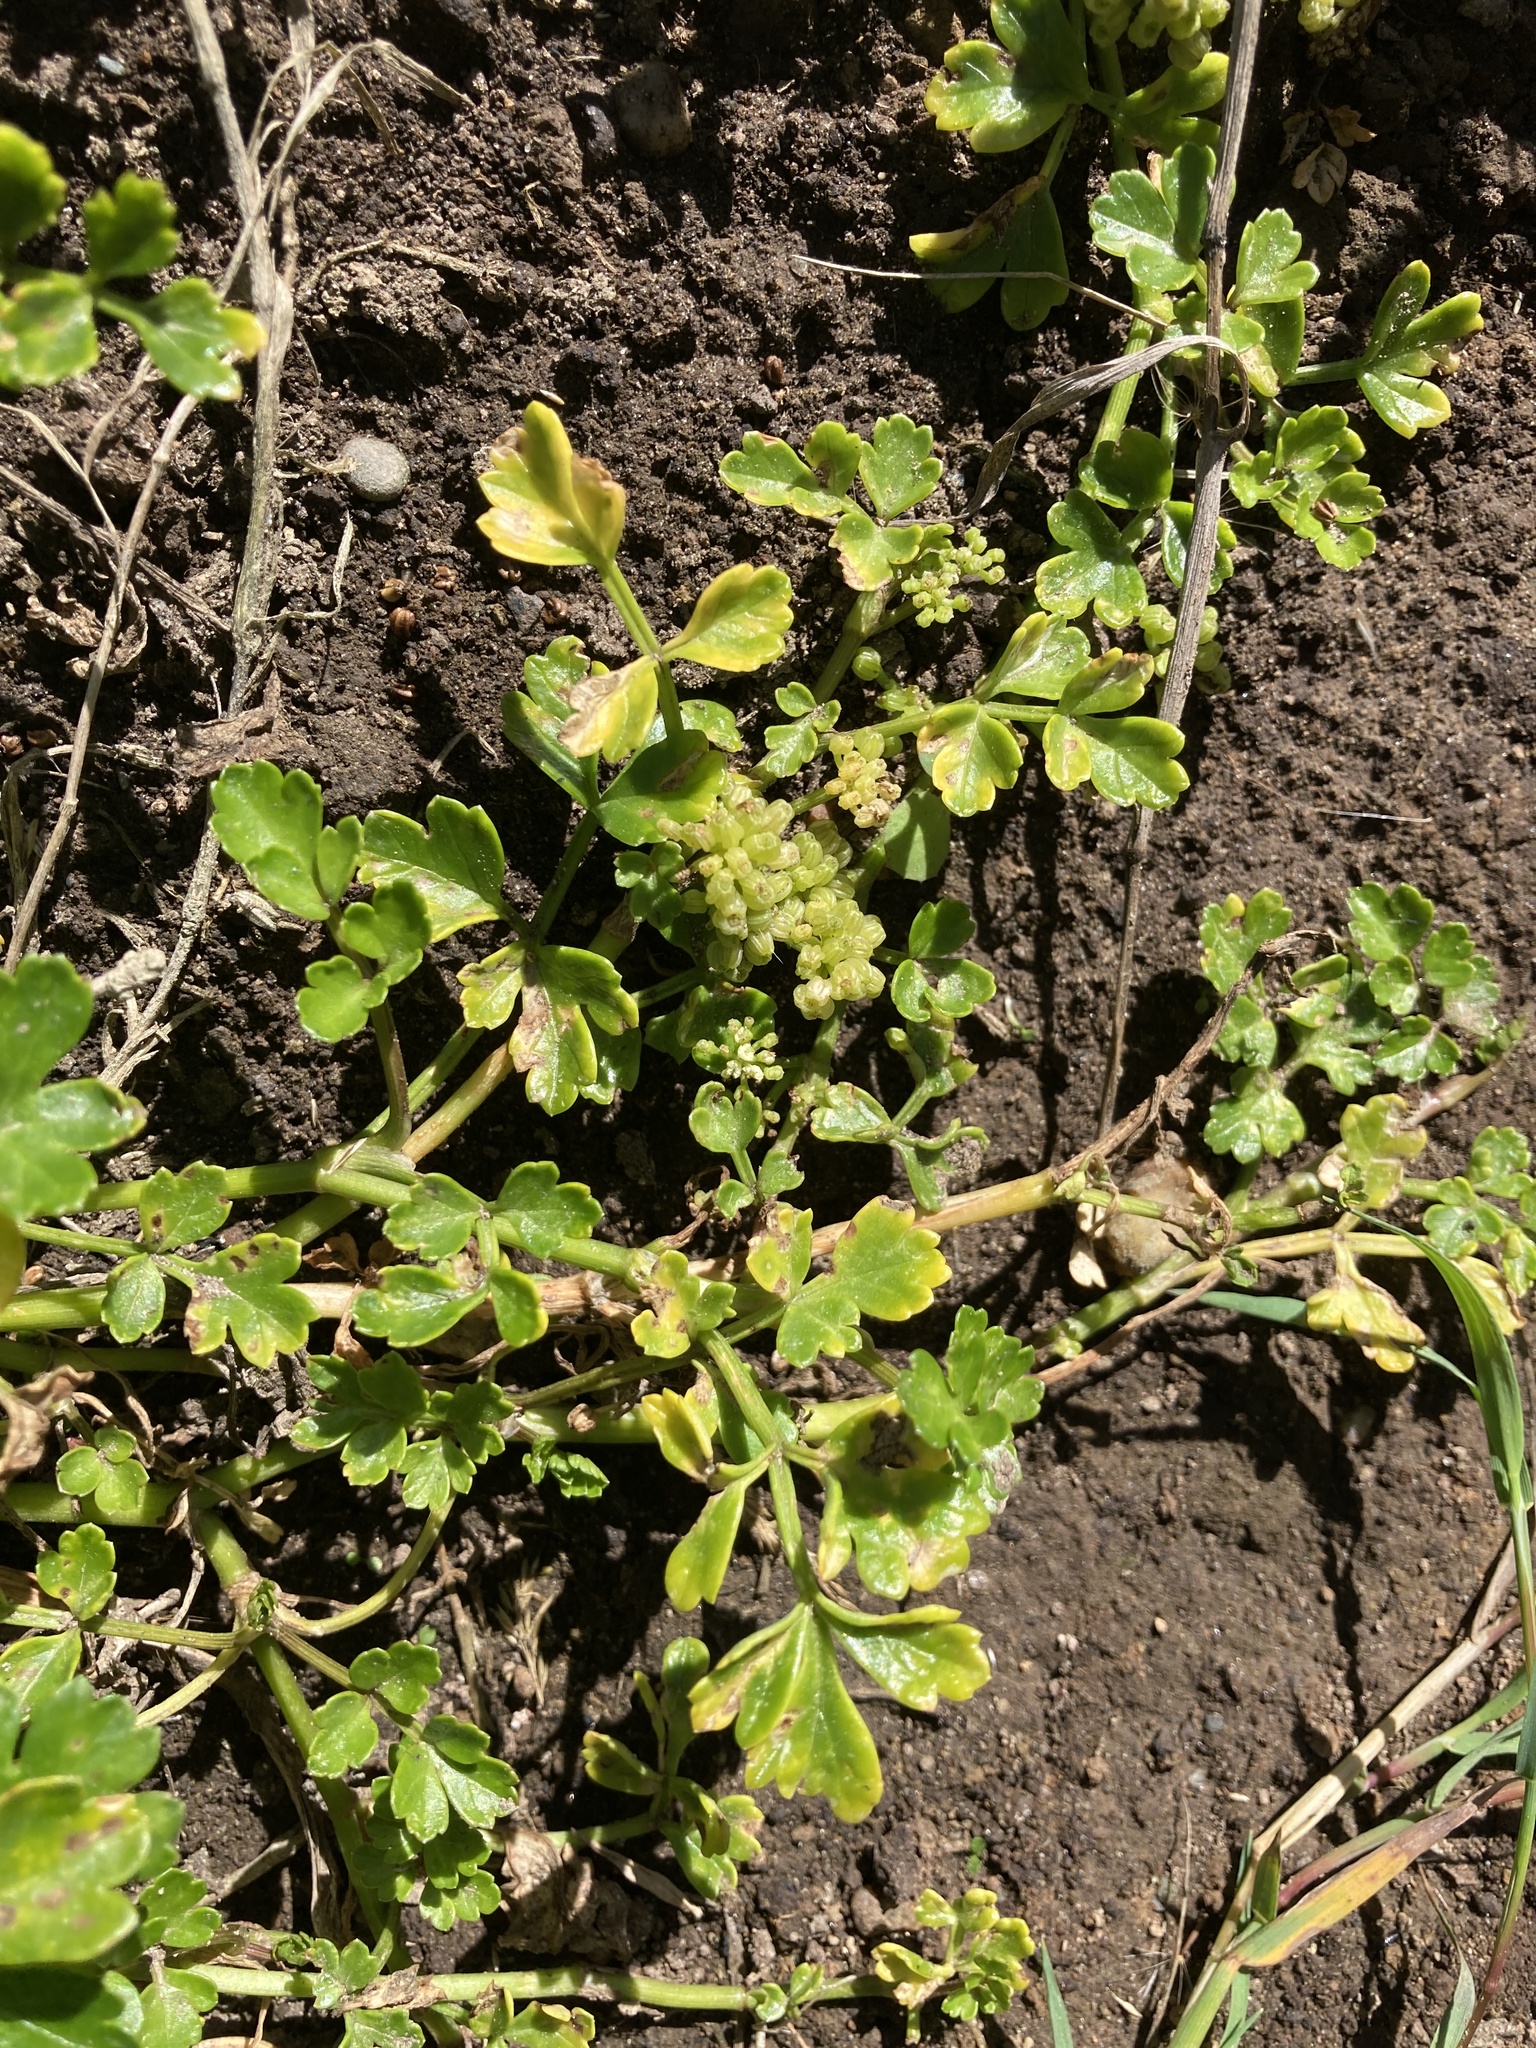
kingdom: Plantae
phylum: Tracheophyta
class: Magnoliopsida
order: Apiales
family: Apiaceae
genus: Apium
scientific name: Apium prostratum
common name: Prostrate marshwort
